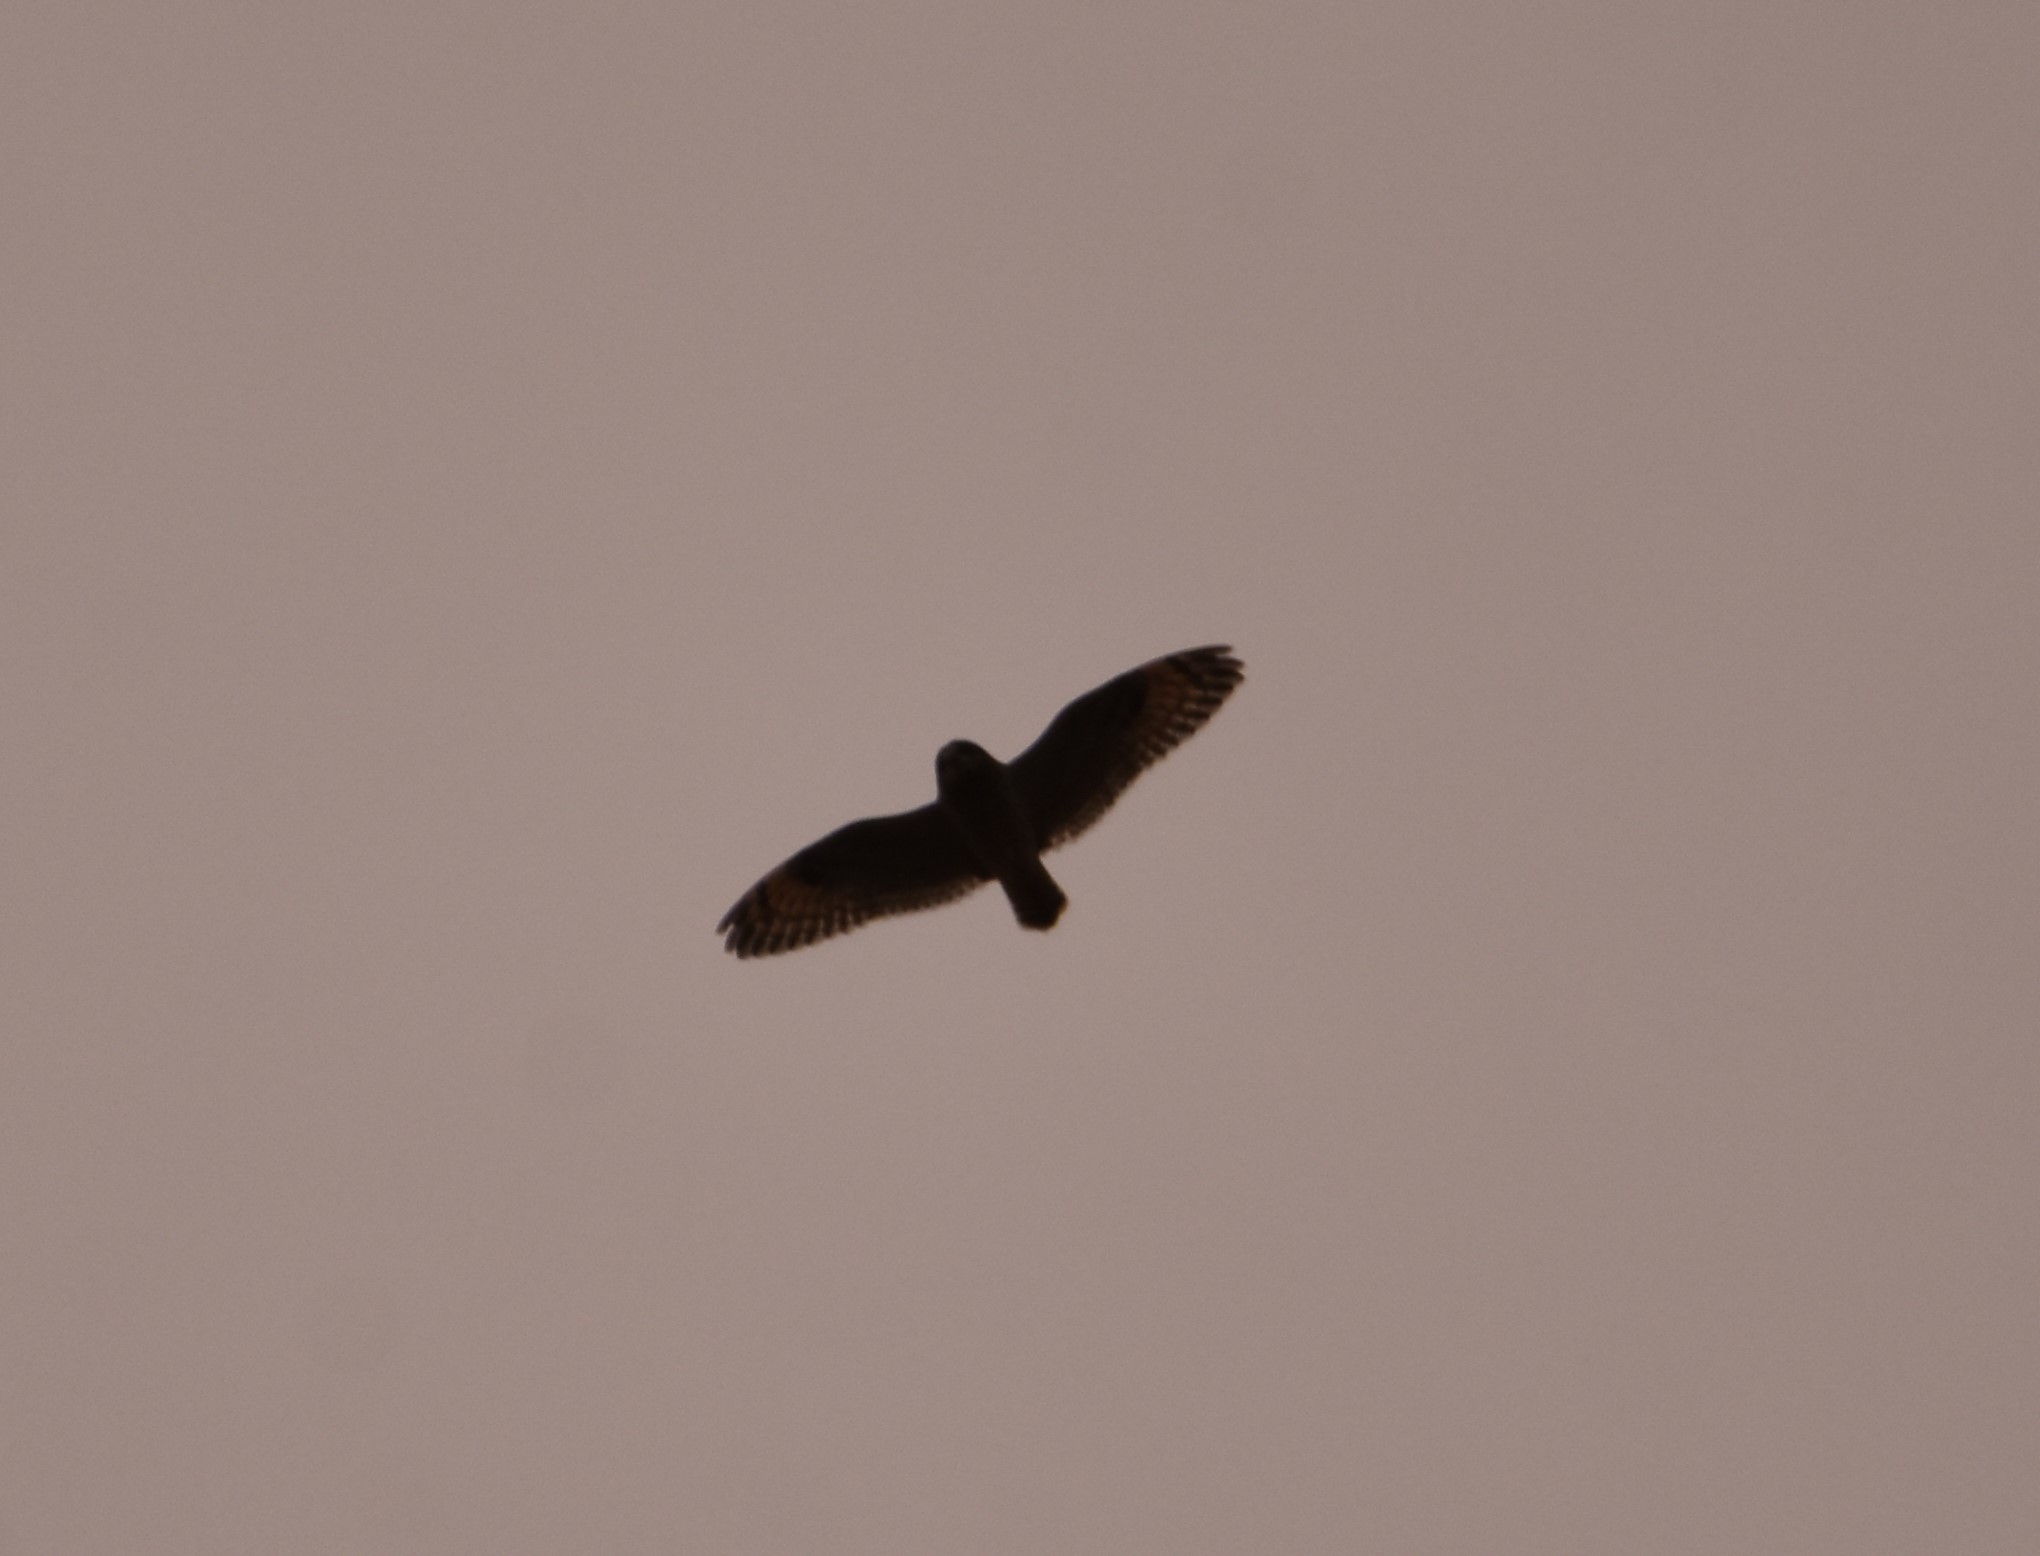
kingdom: Animalia
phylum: Chordata
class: Aves
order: Strigiformes
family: Strigidae
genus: Asio
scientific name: Asio flammeus
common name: Short-eared owl
